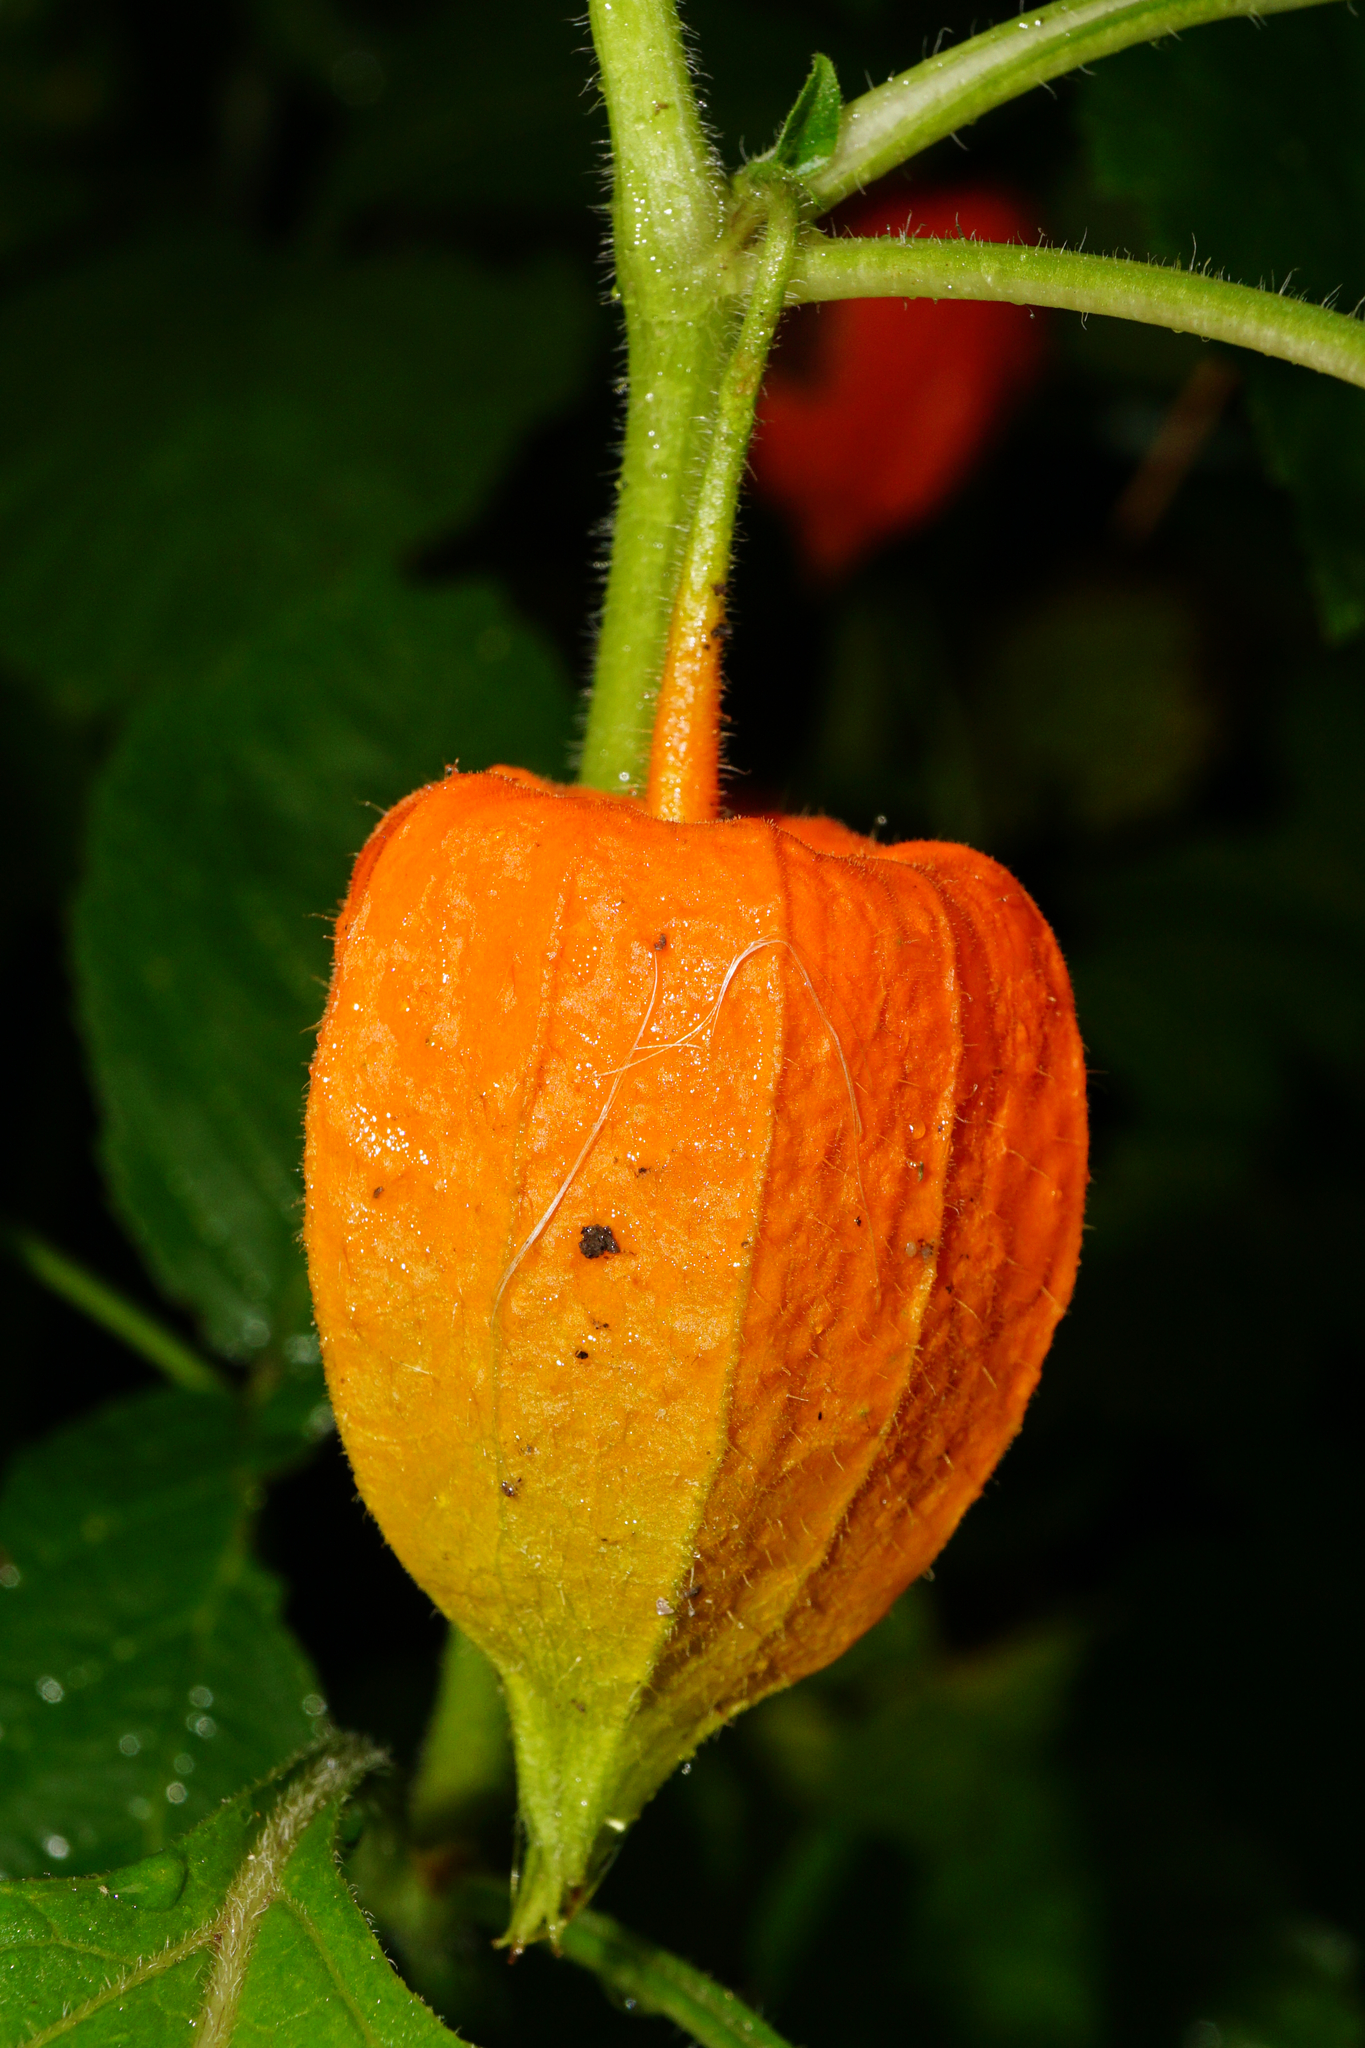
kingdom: Plantae
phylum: Tracheophyta
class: Magnoliopsida
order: Solanales
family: Solanaceae
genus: Alkekengi
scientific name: Alkekengi officinarum
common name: Japanese-lantern
